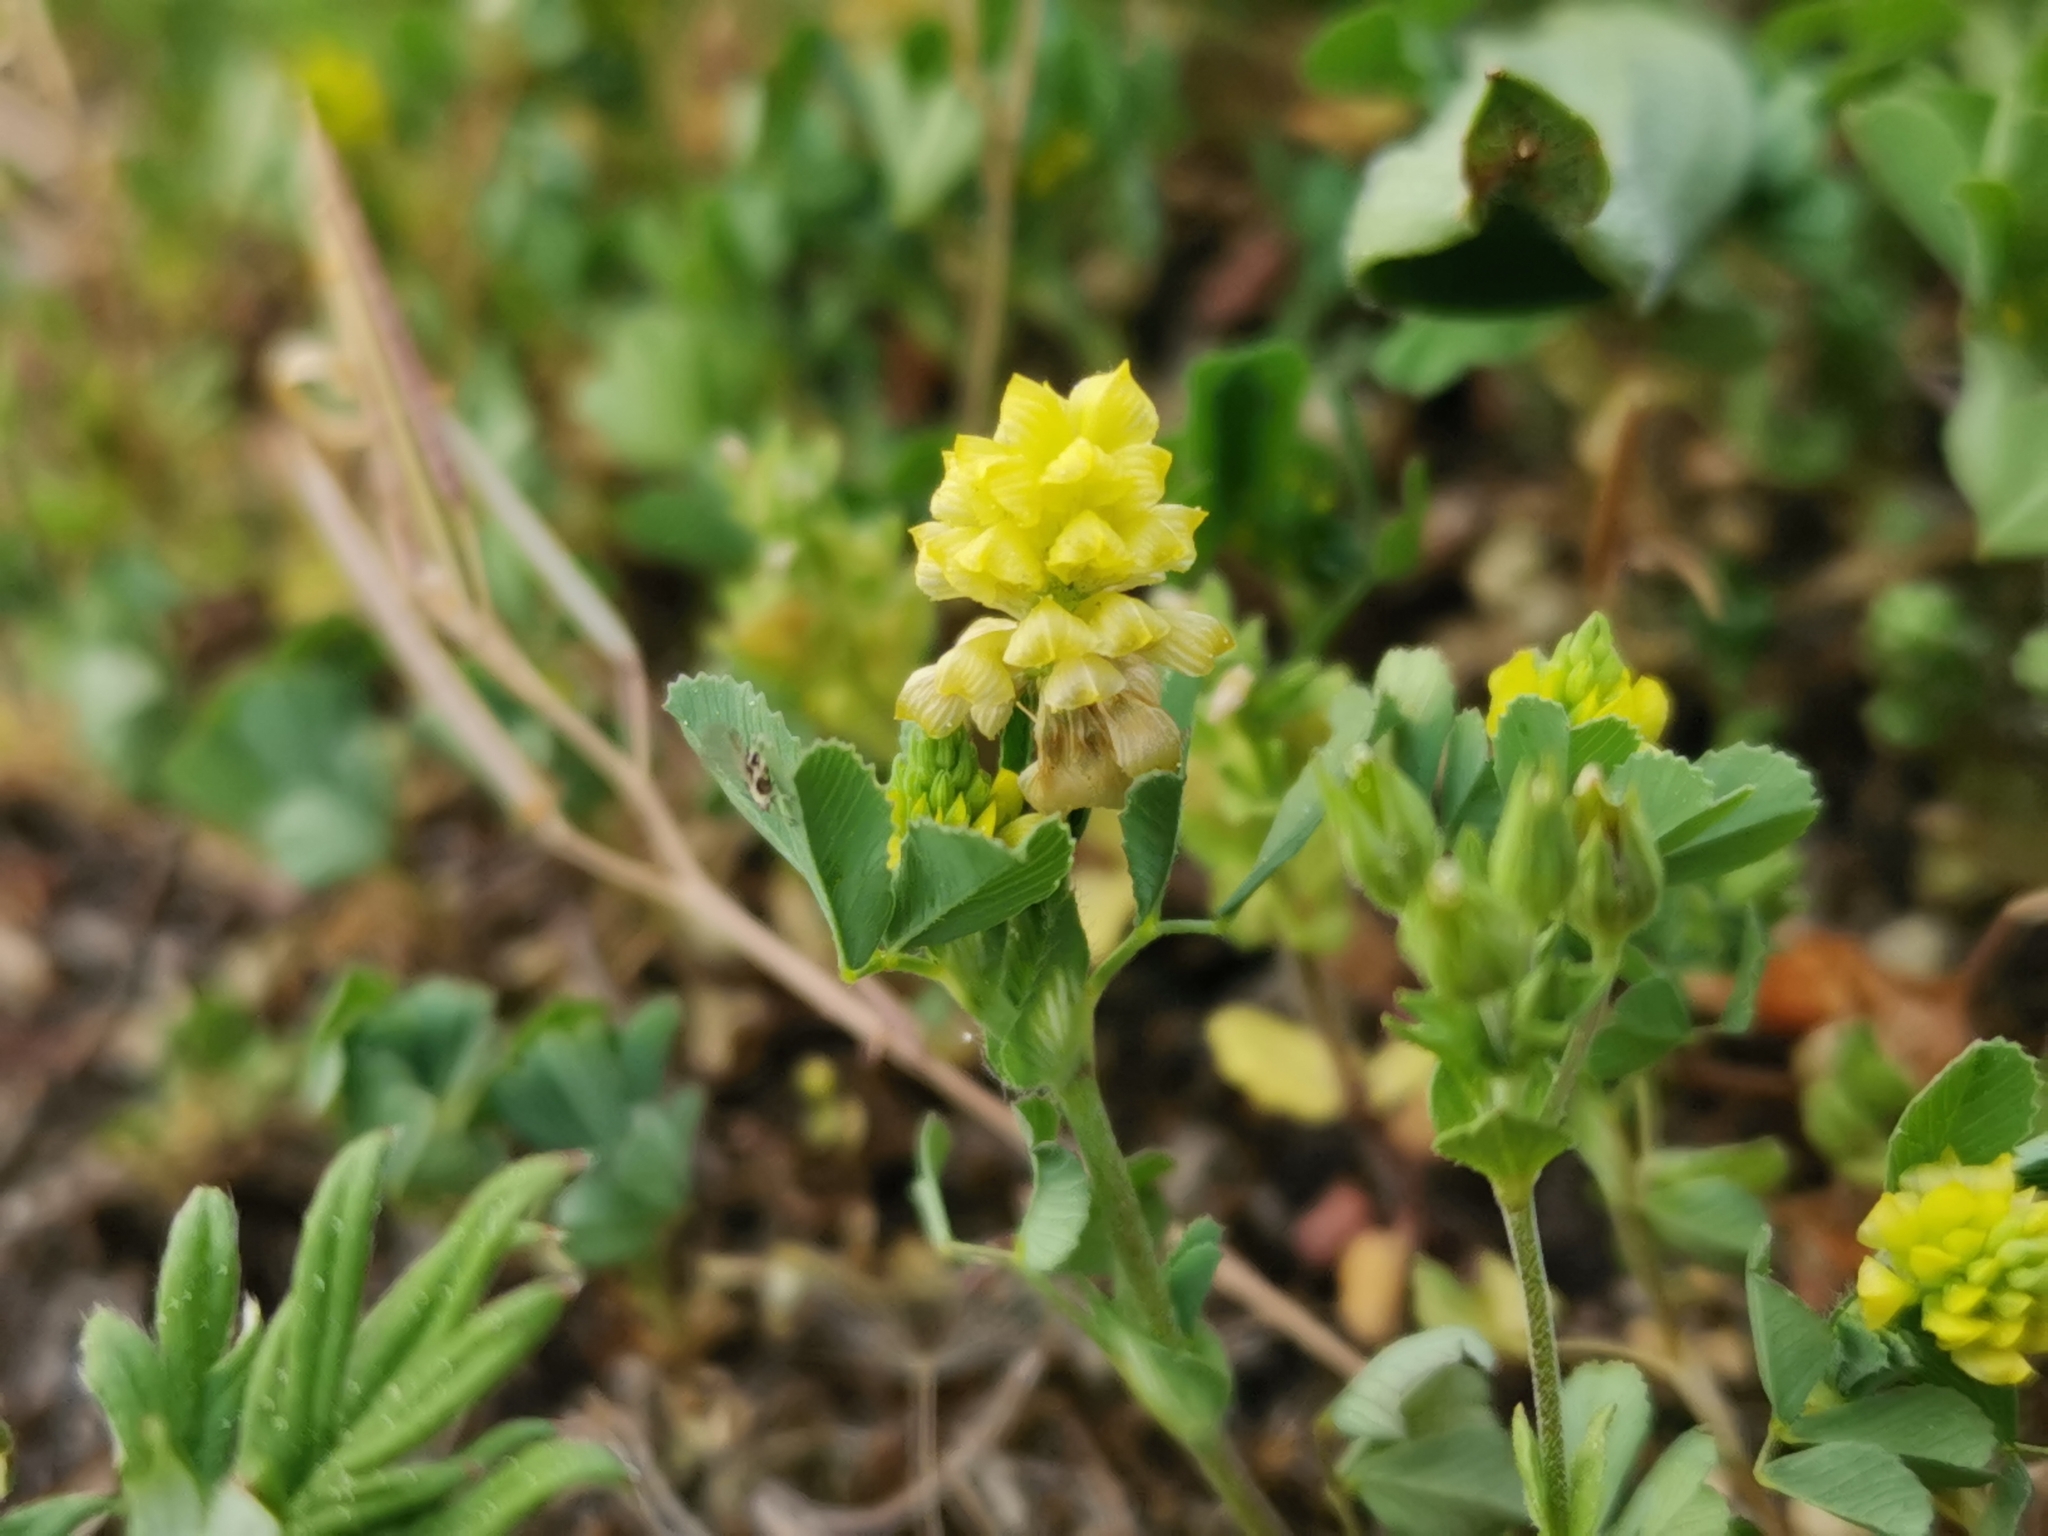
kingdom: Plantae
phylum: Tracheophyta
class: Magnoliopsida
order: Fabales
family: Fabaceae
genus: Trifolium
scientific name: Trifolium campestre
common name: Field clover
